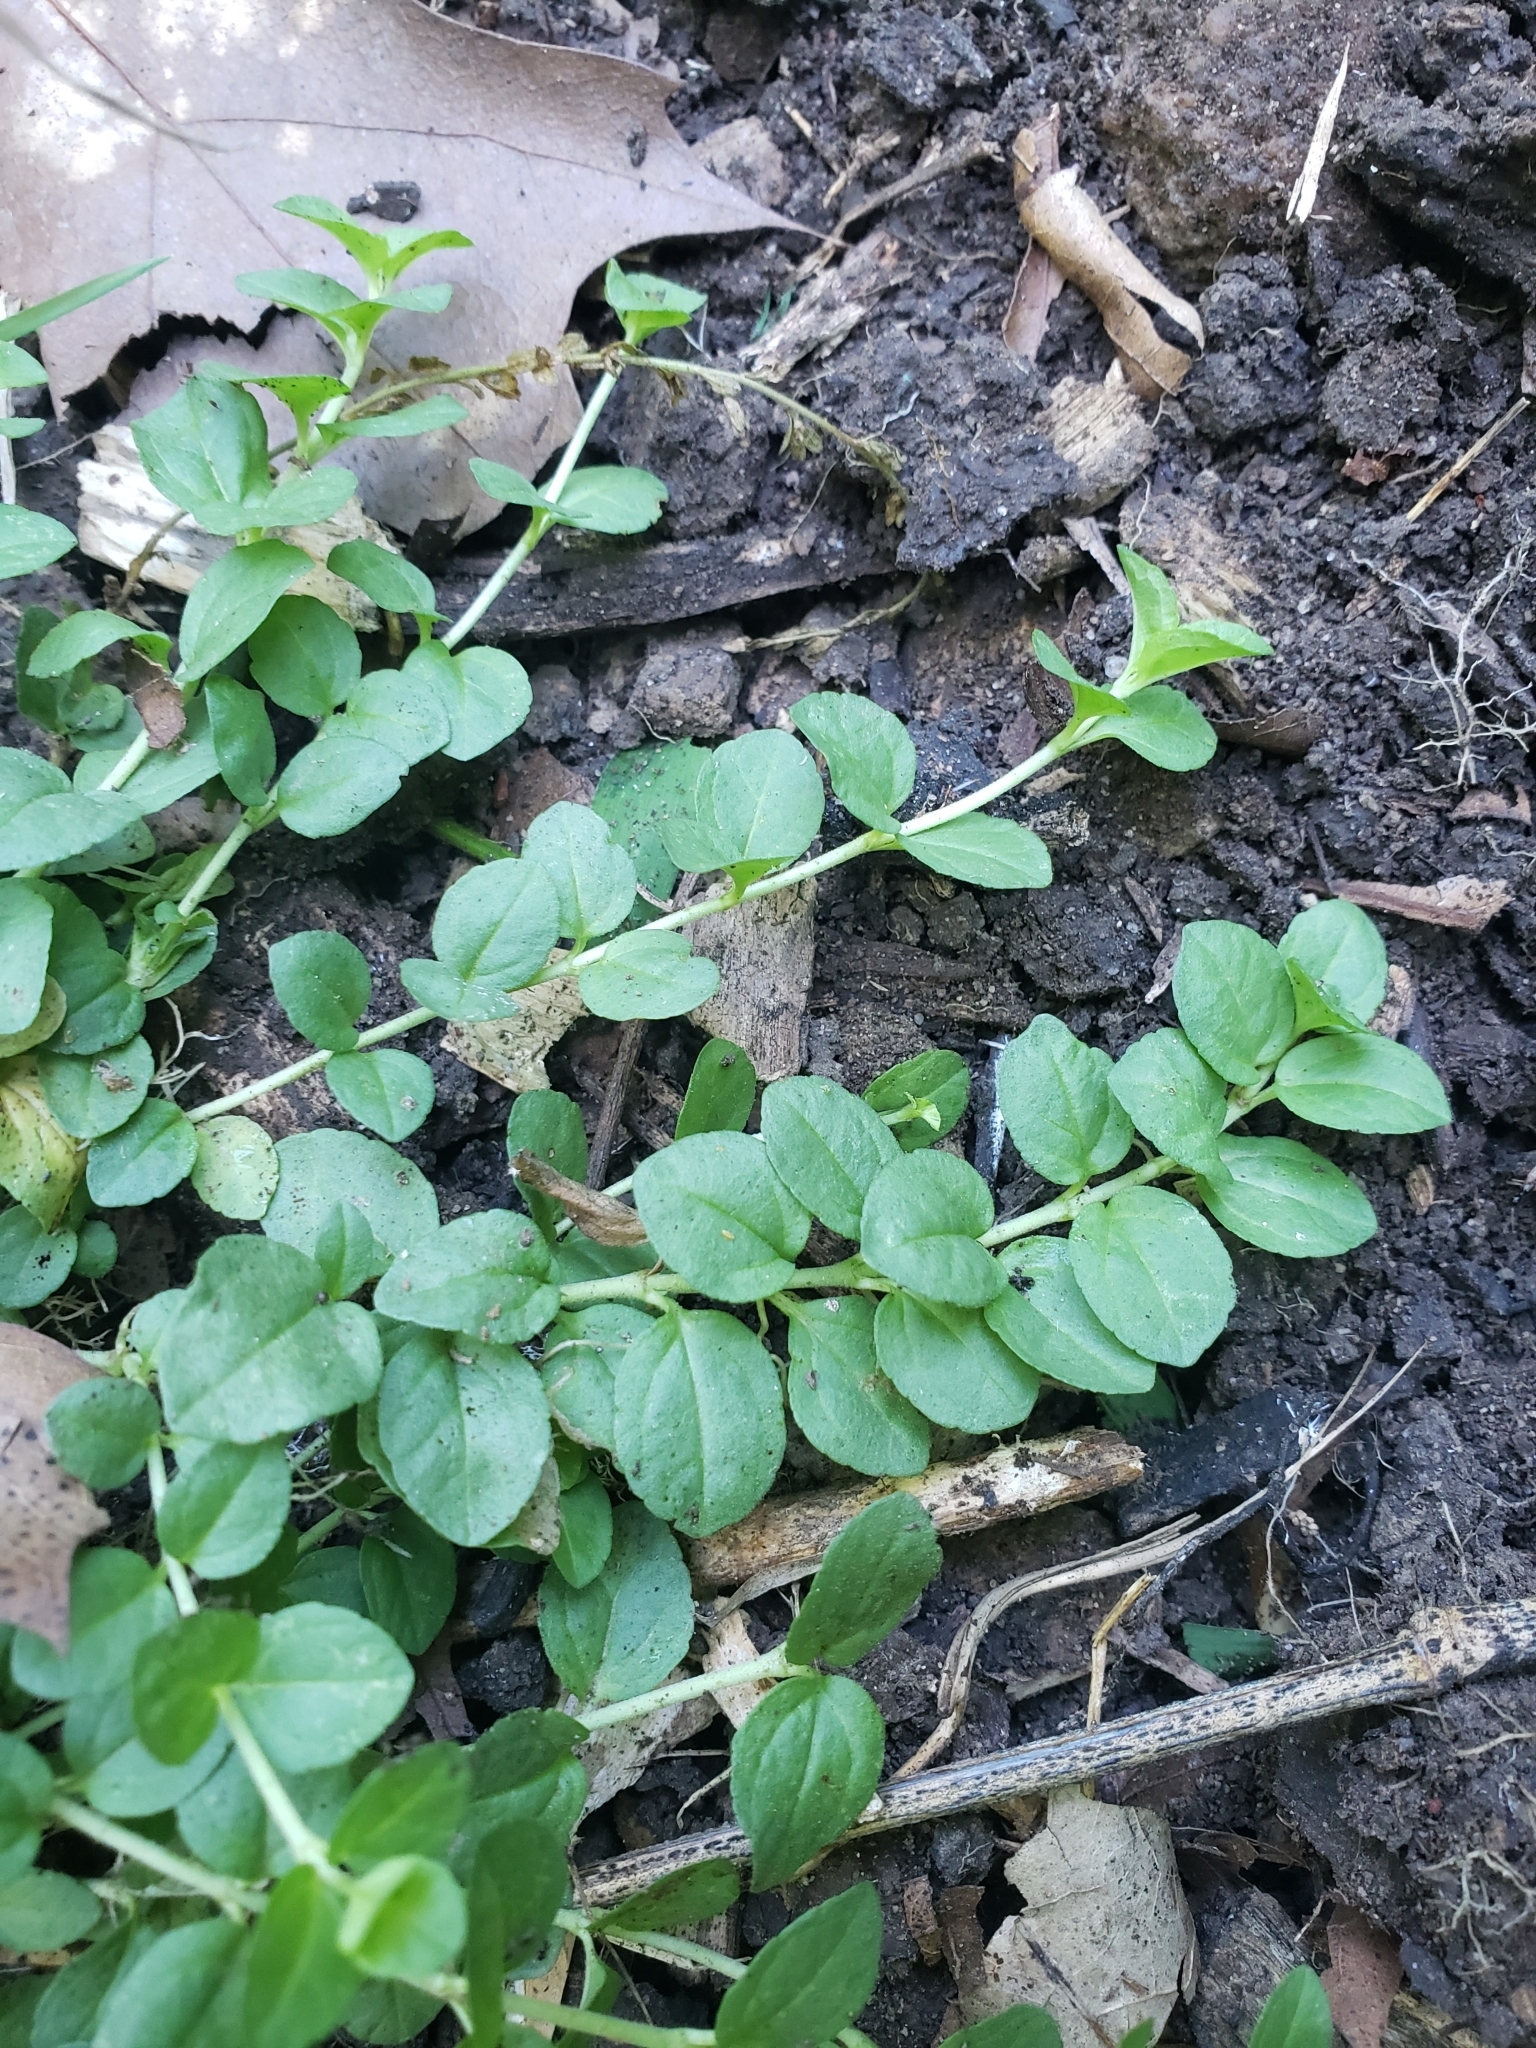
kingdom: Plantae
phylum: Tracheophyta
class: Magnoliopsida
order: Ericales
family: Primulaceae
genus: Lysimachia
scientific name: Lysimachia nummularia
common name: Moneywort
